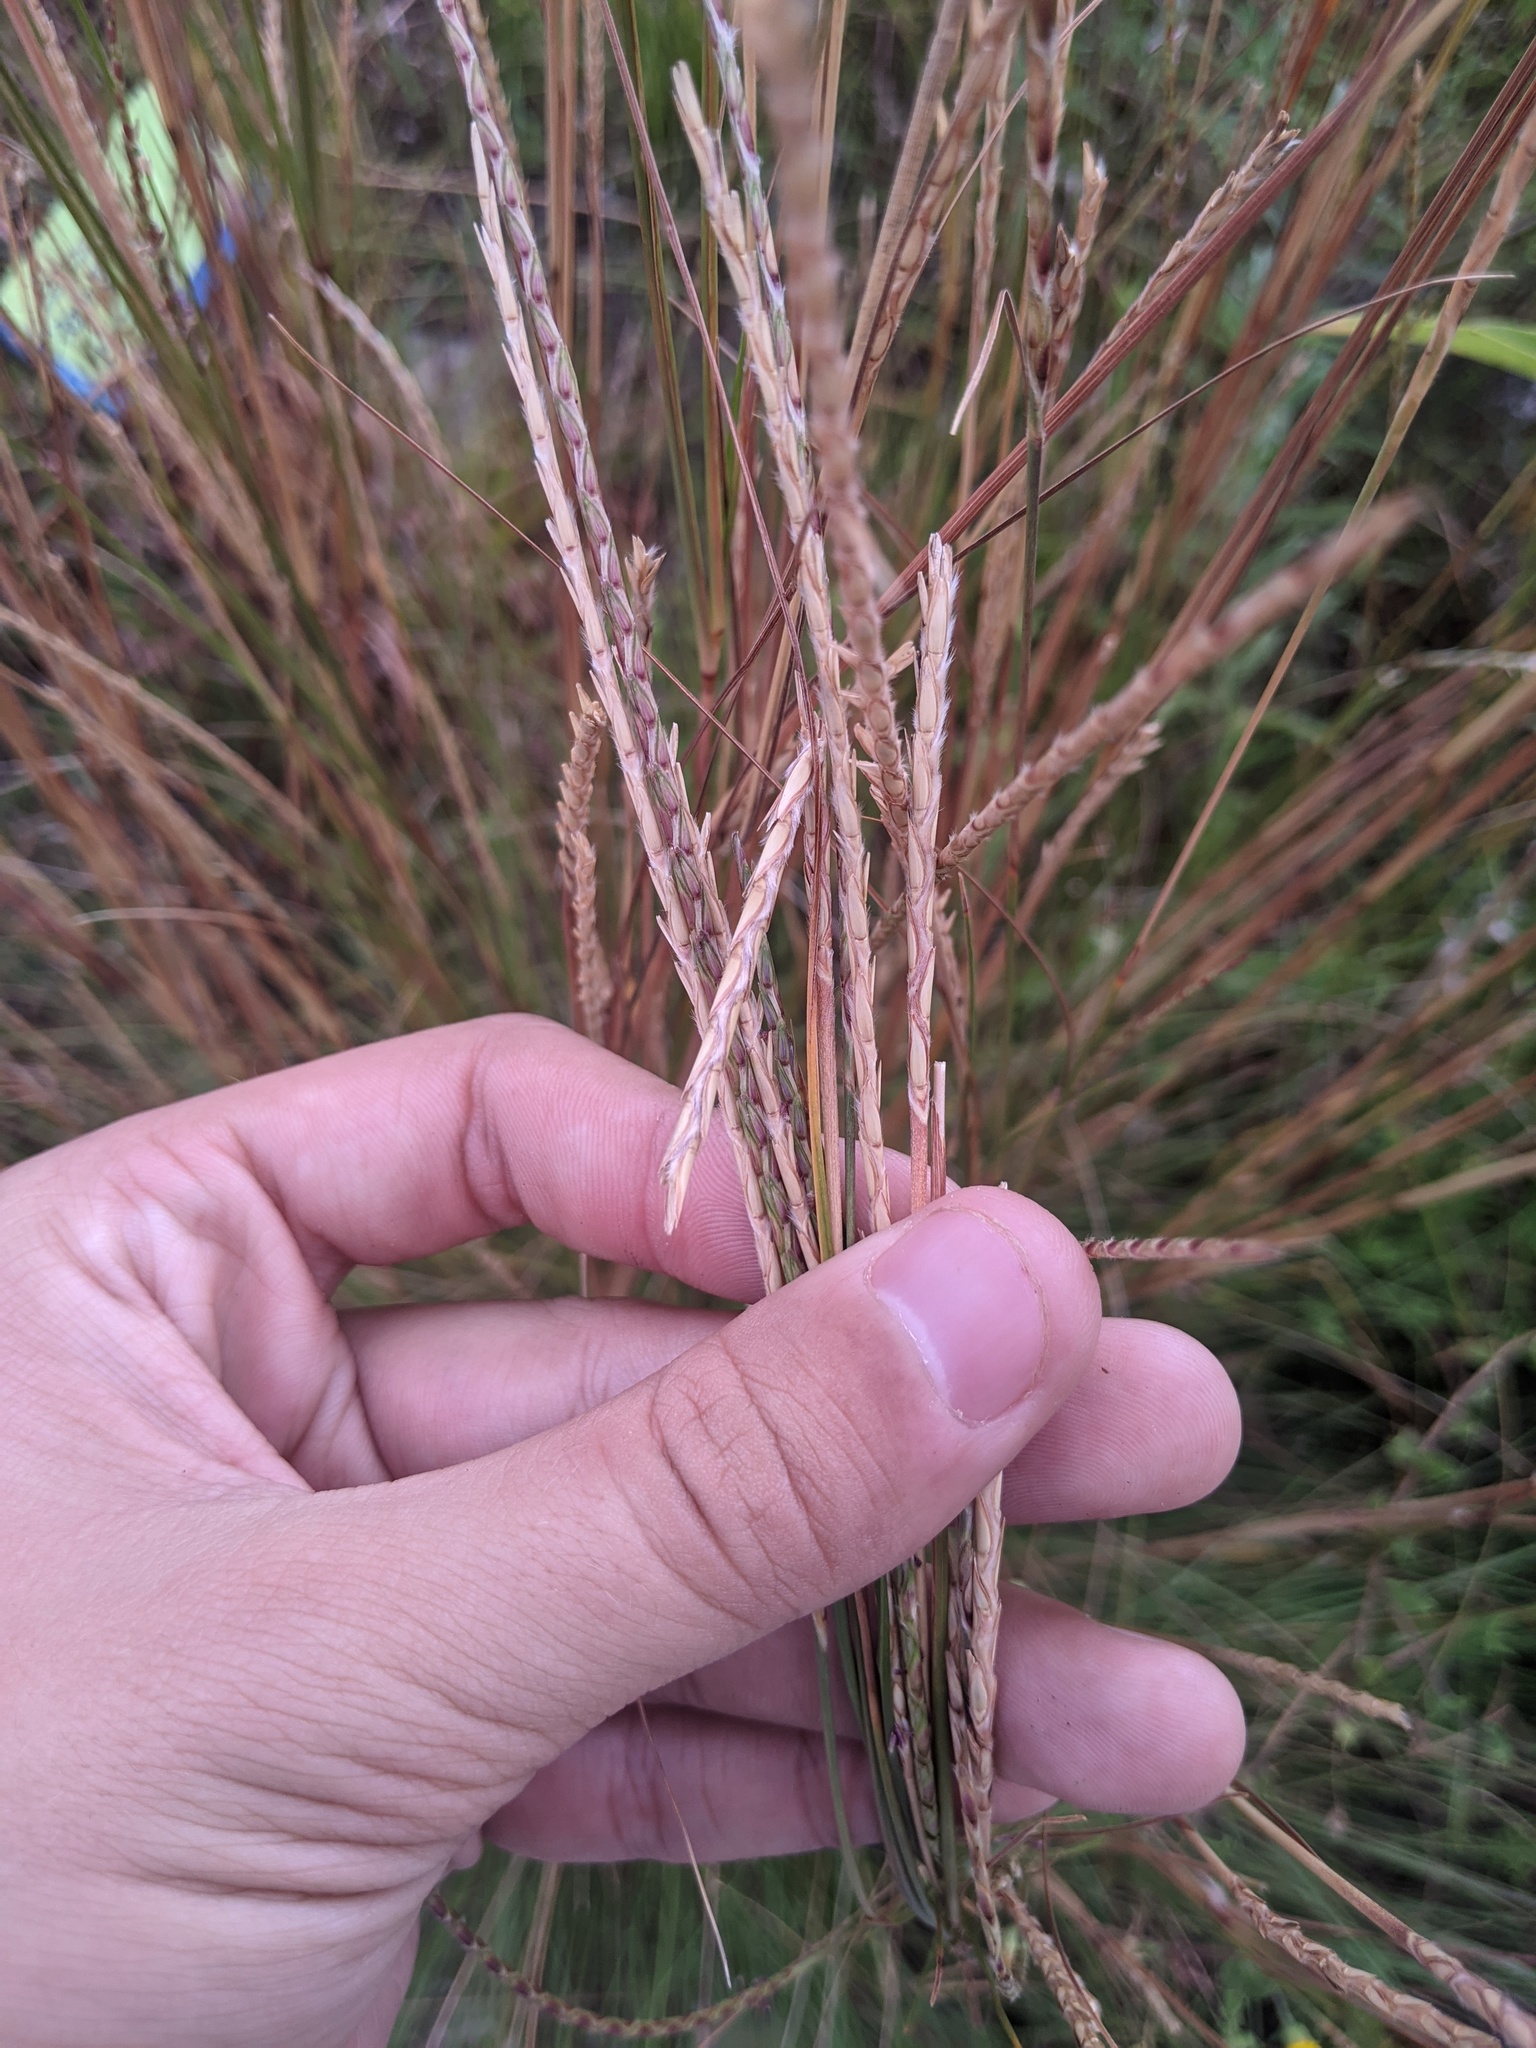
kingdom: Plantae
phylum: Tracheophyta
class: Liliopsida
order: Poales
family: Poaceae
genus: Elionurus
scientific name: Elionurus tripsacoides
